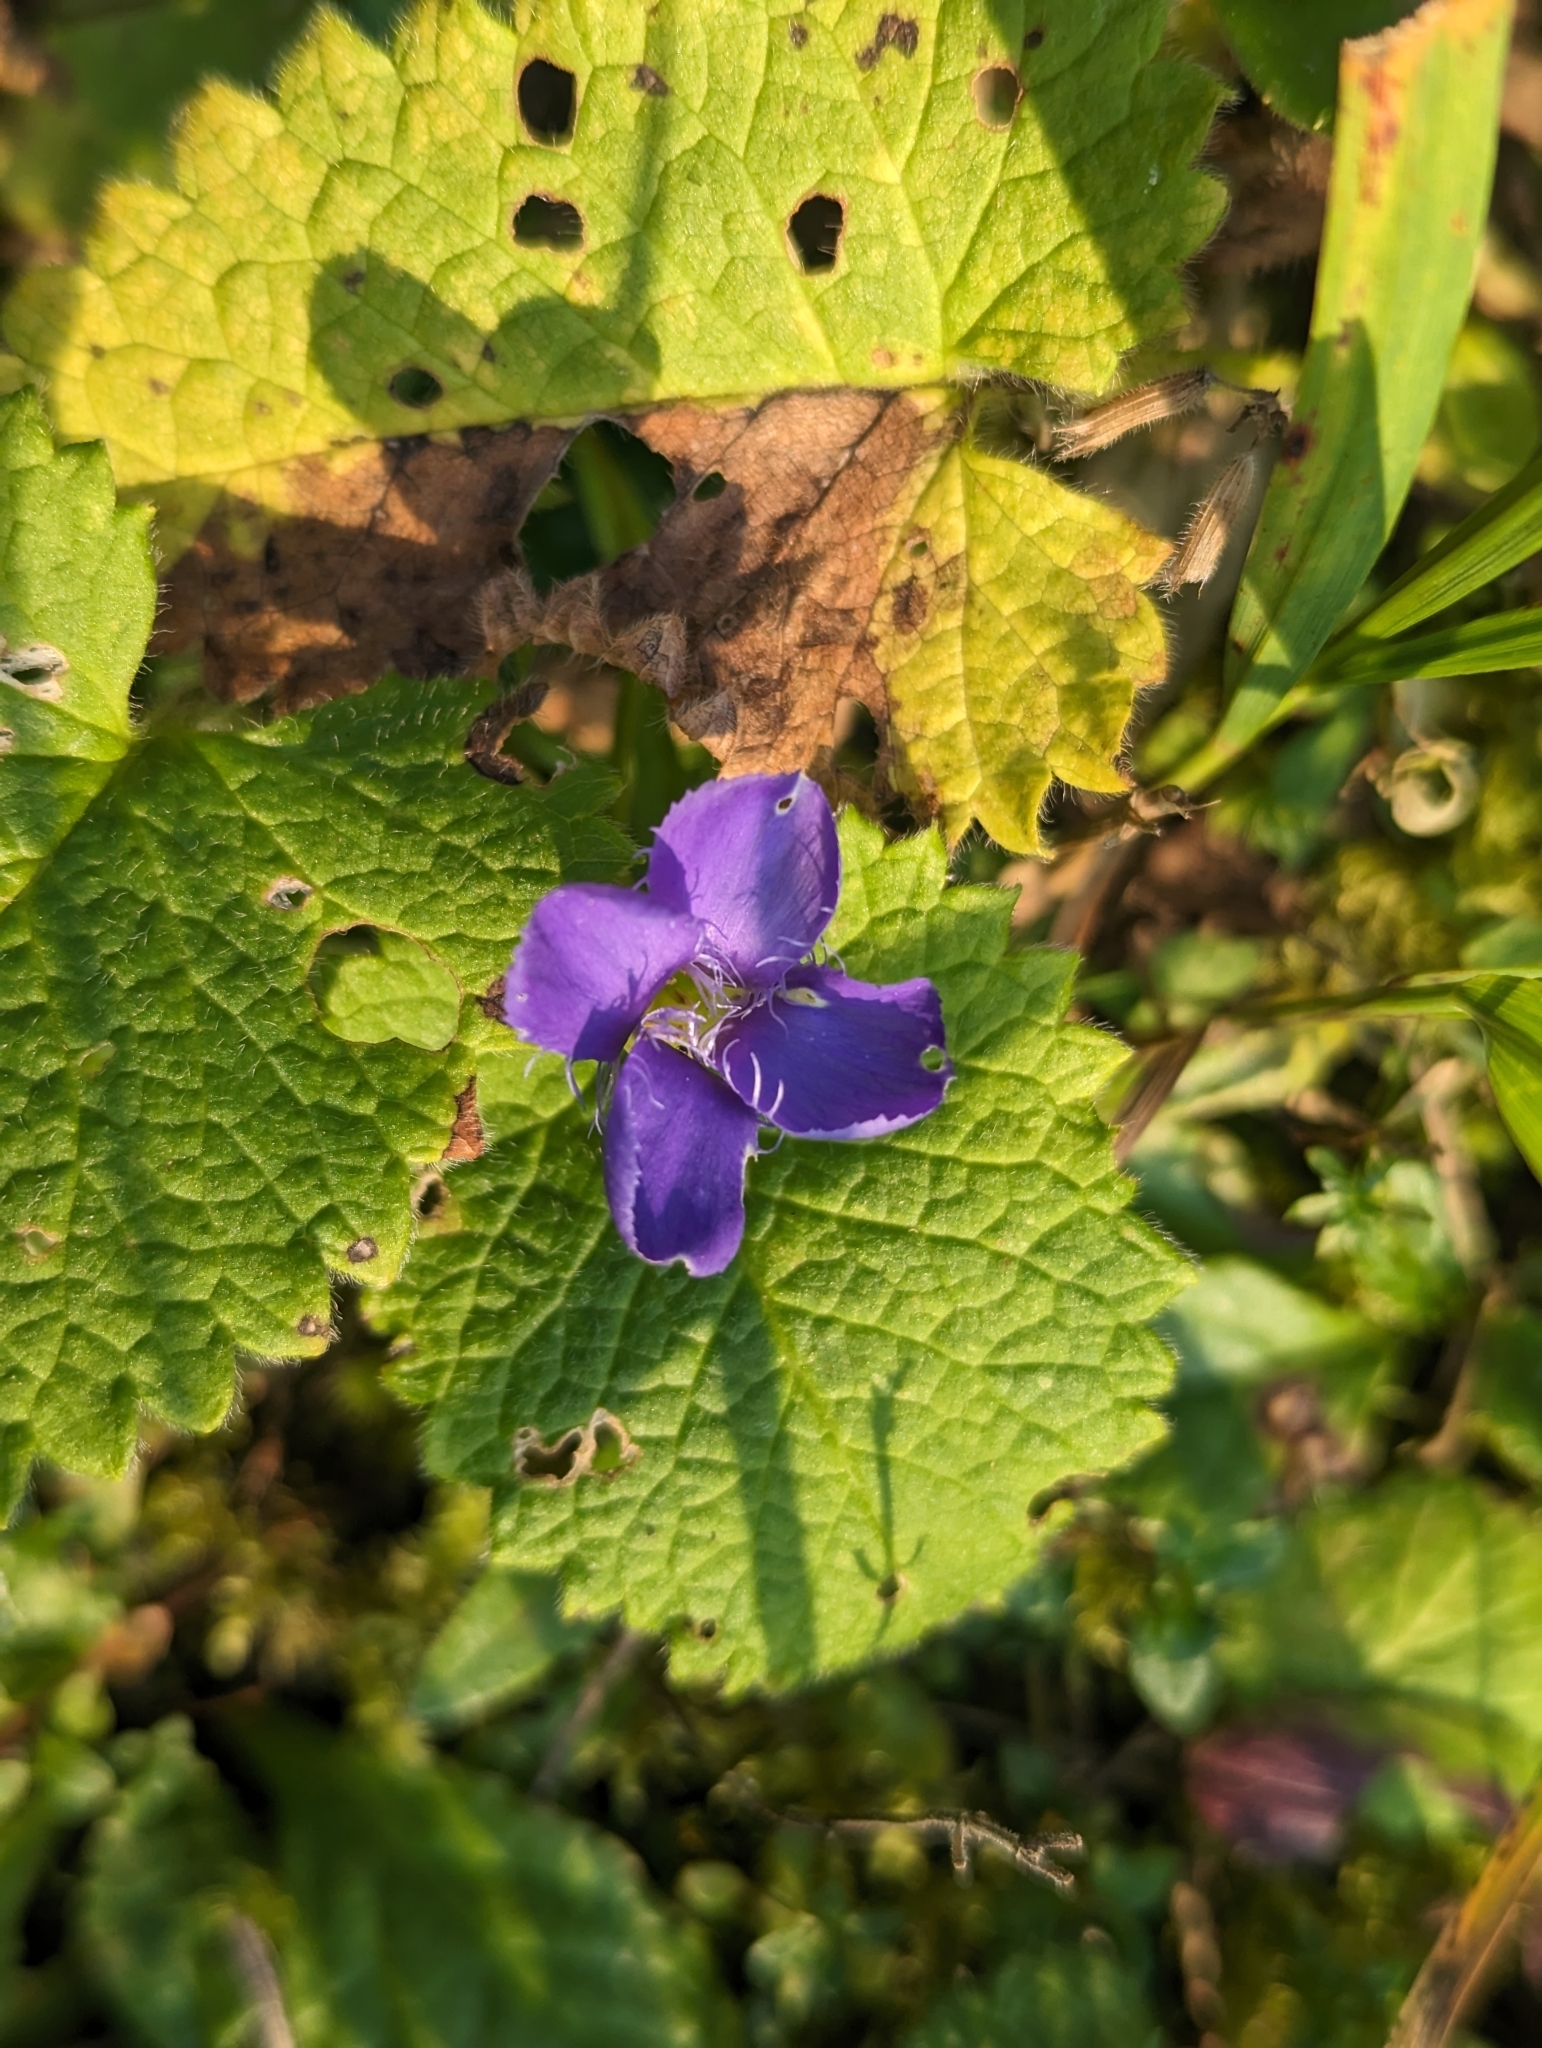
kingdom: Plantae
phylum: Tracheophyta
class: Magnoliopsida
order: Gentianales
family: Gentianaceae
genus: Gentianopsis
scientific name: Gentianopsis ciliata
